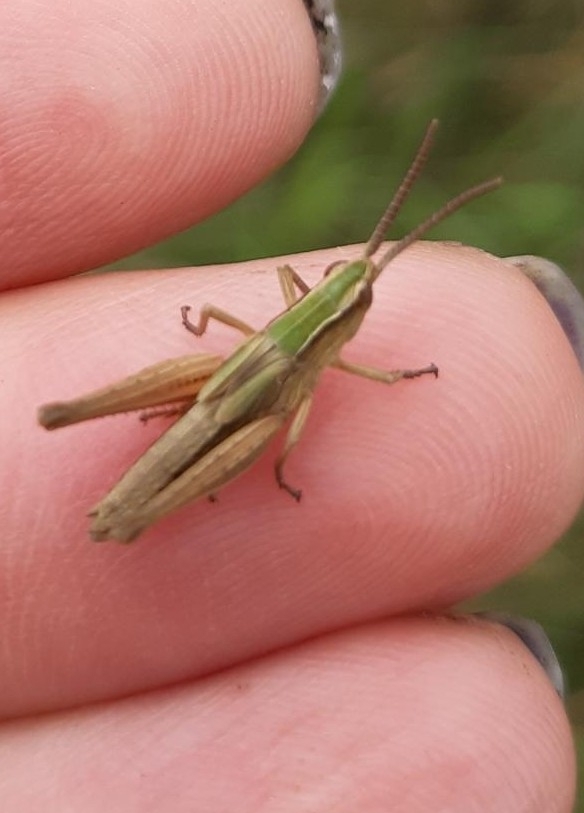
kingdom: Animalia
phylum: Arthropoda
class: Insecta
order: Orthoptera
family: Acrididae
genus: Chorthippus
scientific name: Chorthippus albomarginatus
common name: Lesser marsh grasshopper
